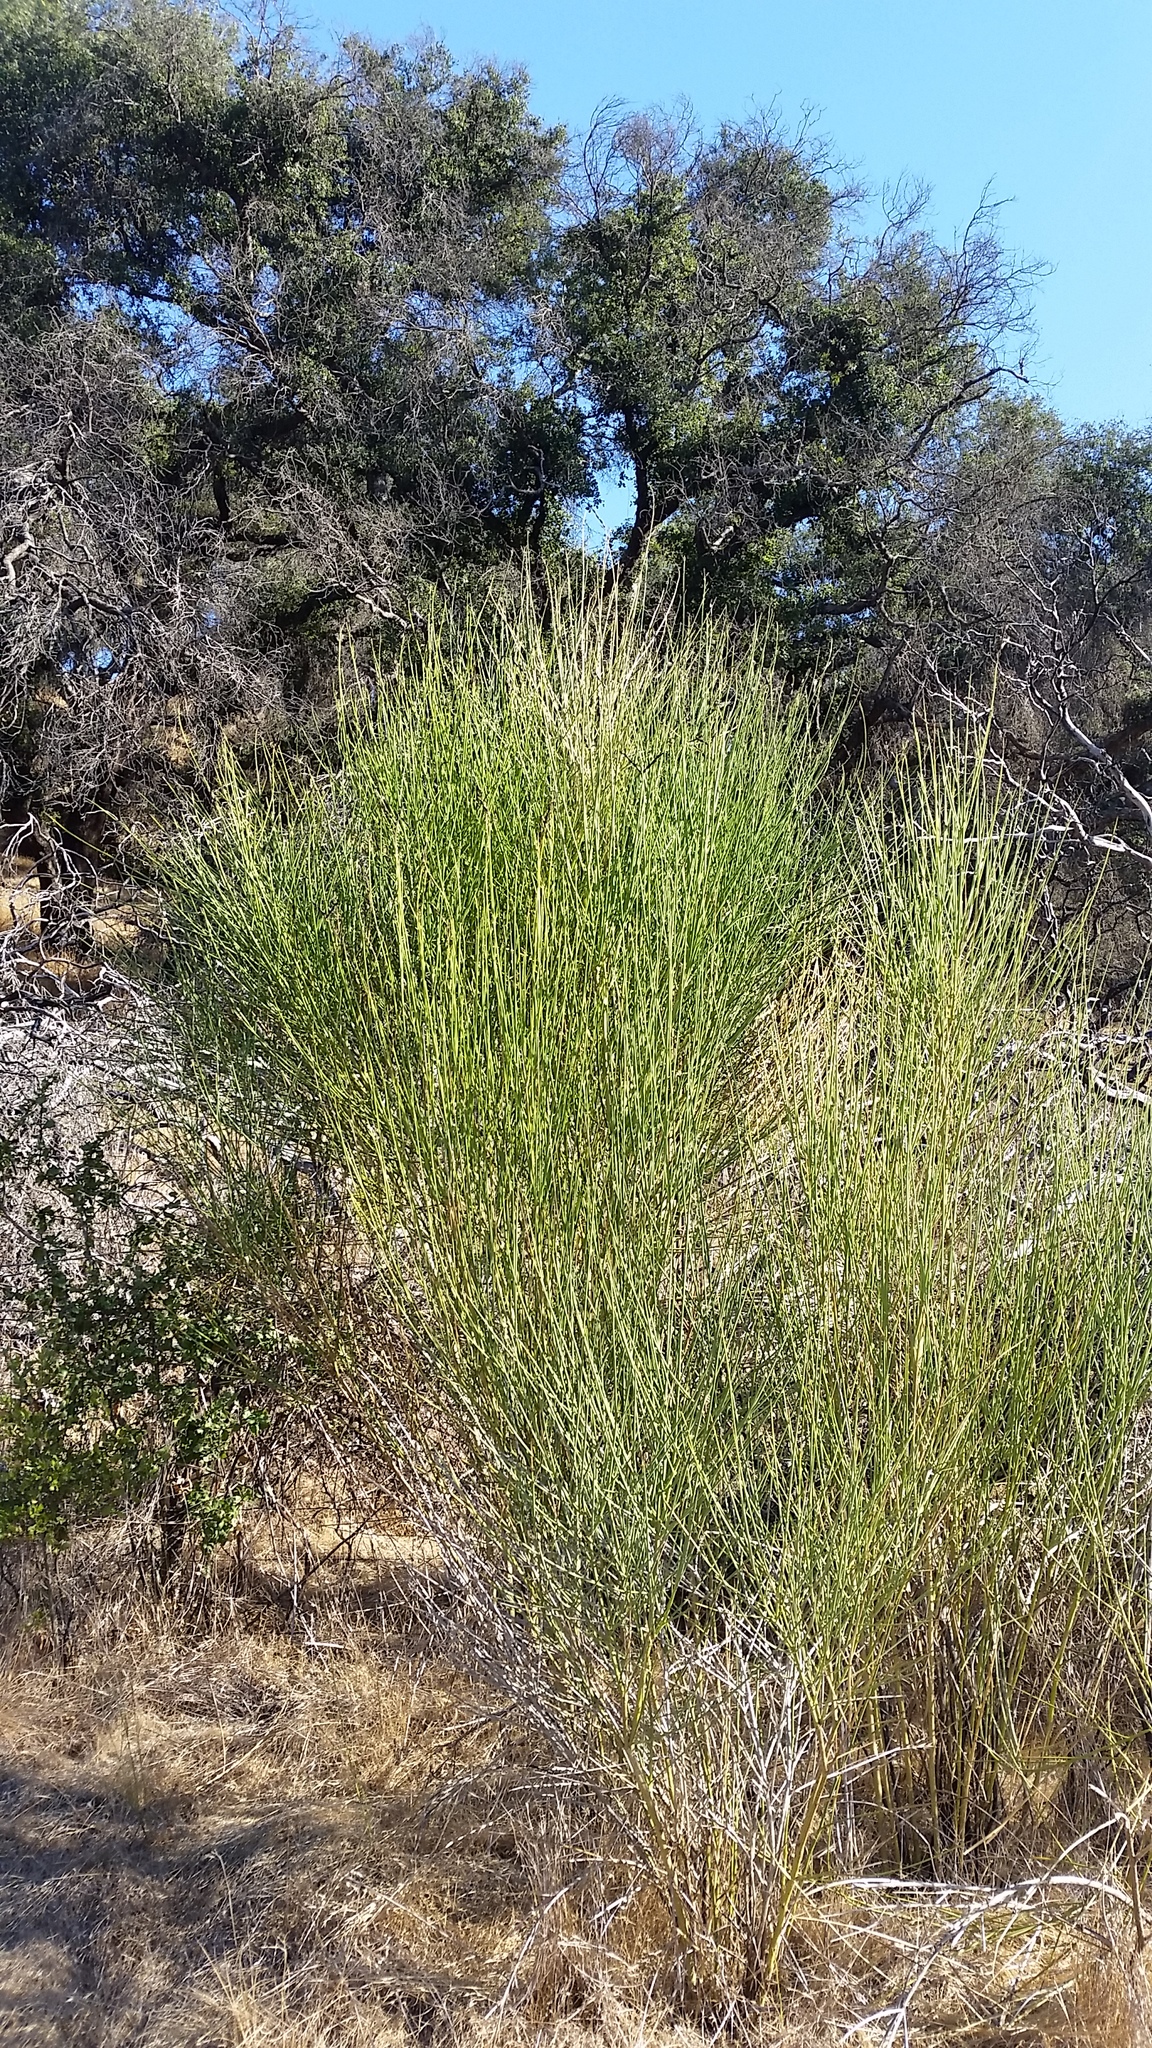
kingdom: Plantae
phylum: Tracheophyta
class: Magnoliopsida
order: Fabales
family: Fabaceae
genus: Spartium
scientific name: Spartium junceum
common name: Spanish broom
